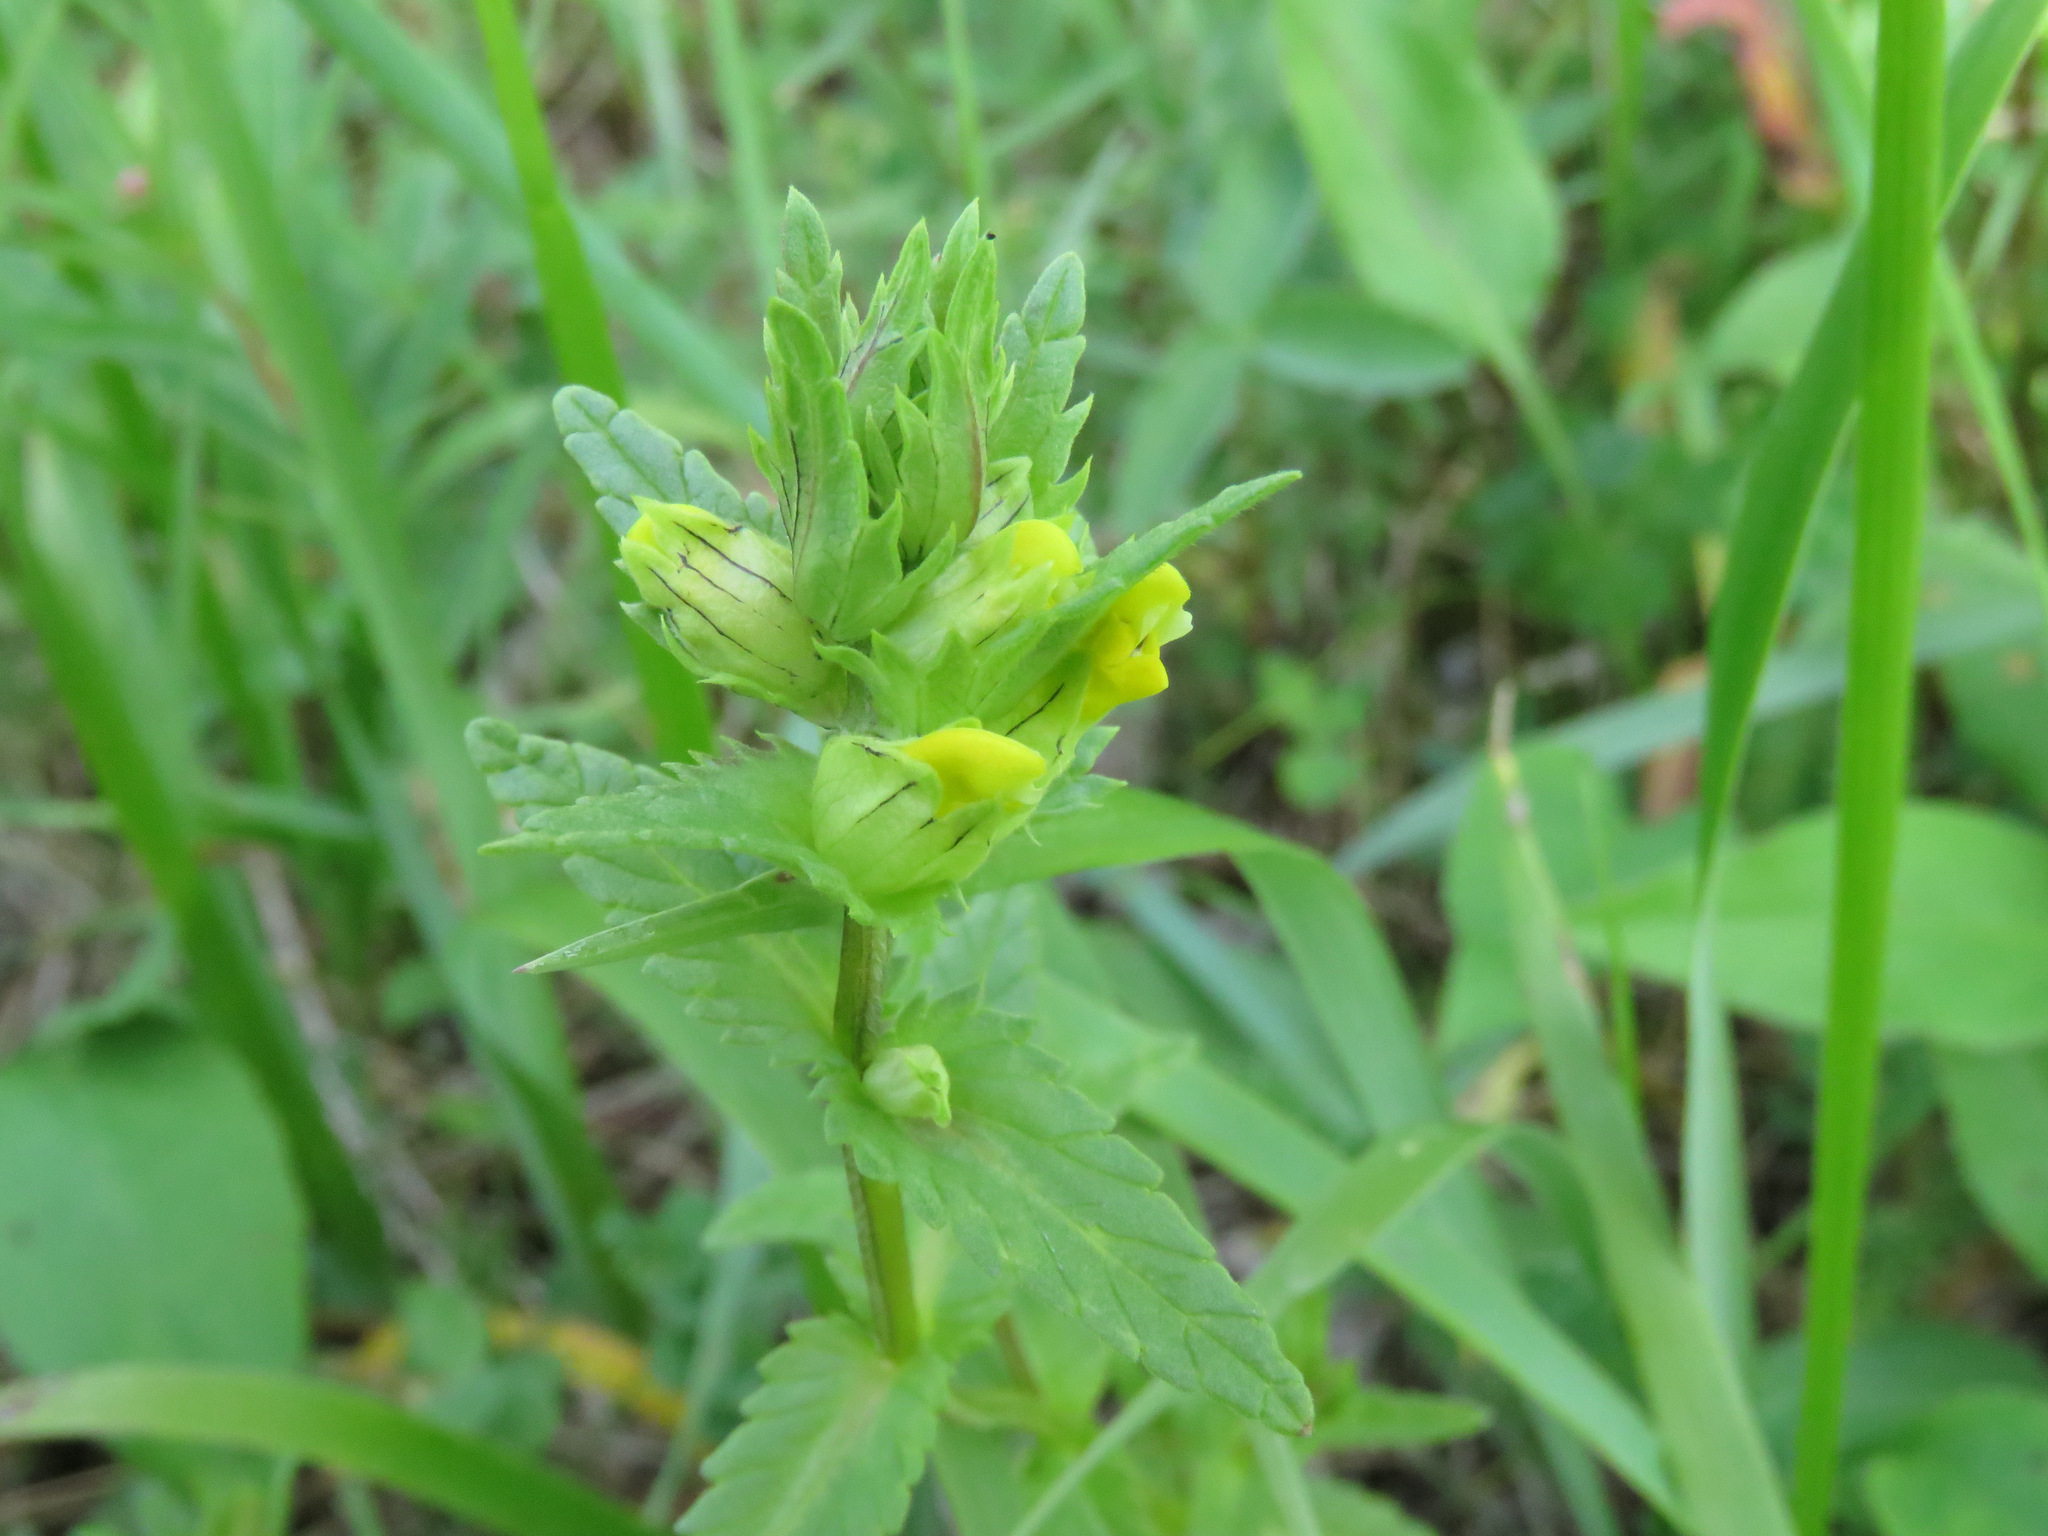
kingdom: Plantae
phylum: Tracheophyta
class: Magnoliopsida
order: Lamiales
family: Orobanchaceae
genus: Rhinanthus
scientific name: Rhinanthus groenlandicus
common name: Little yellow rattle
